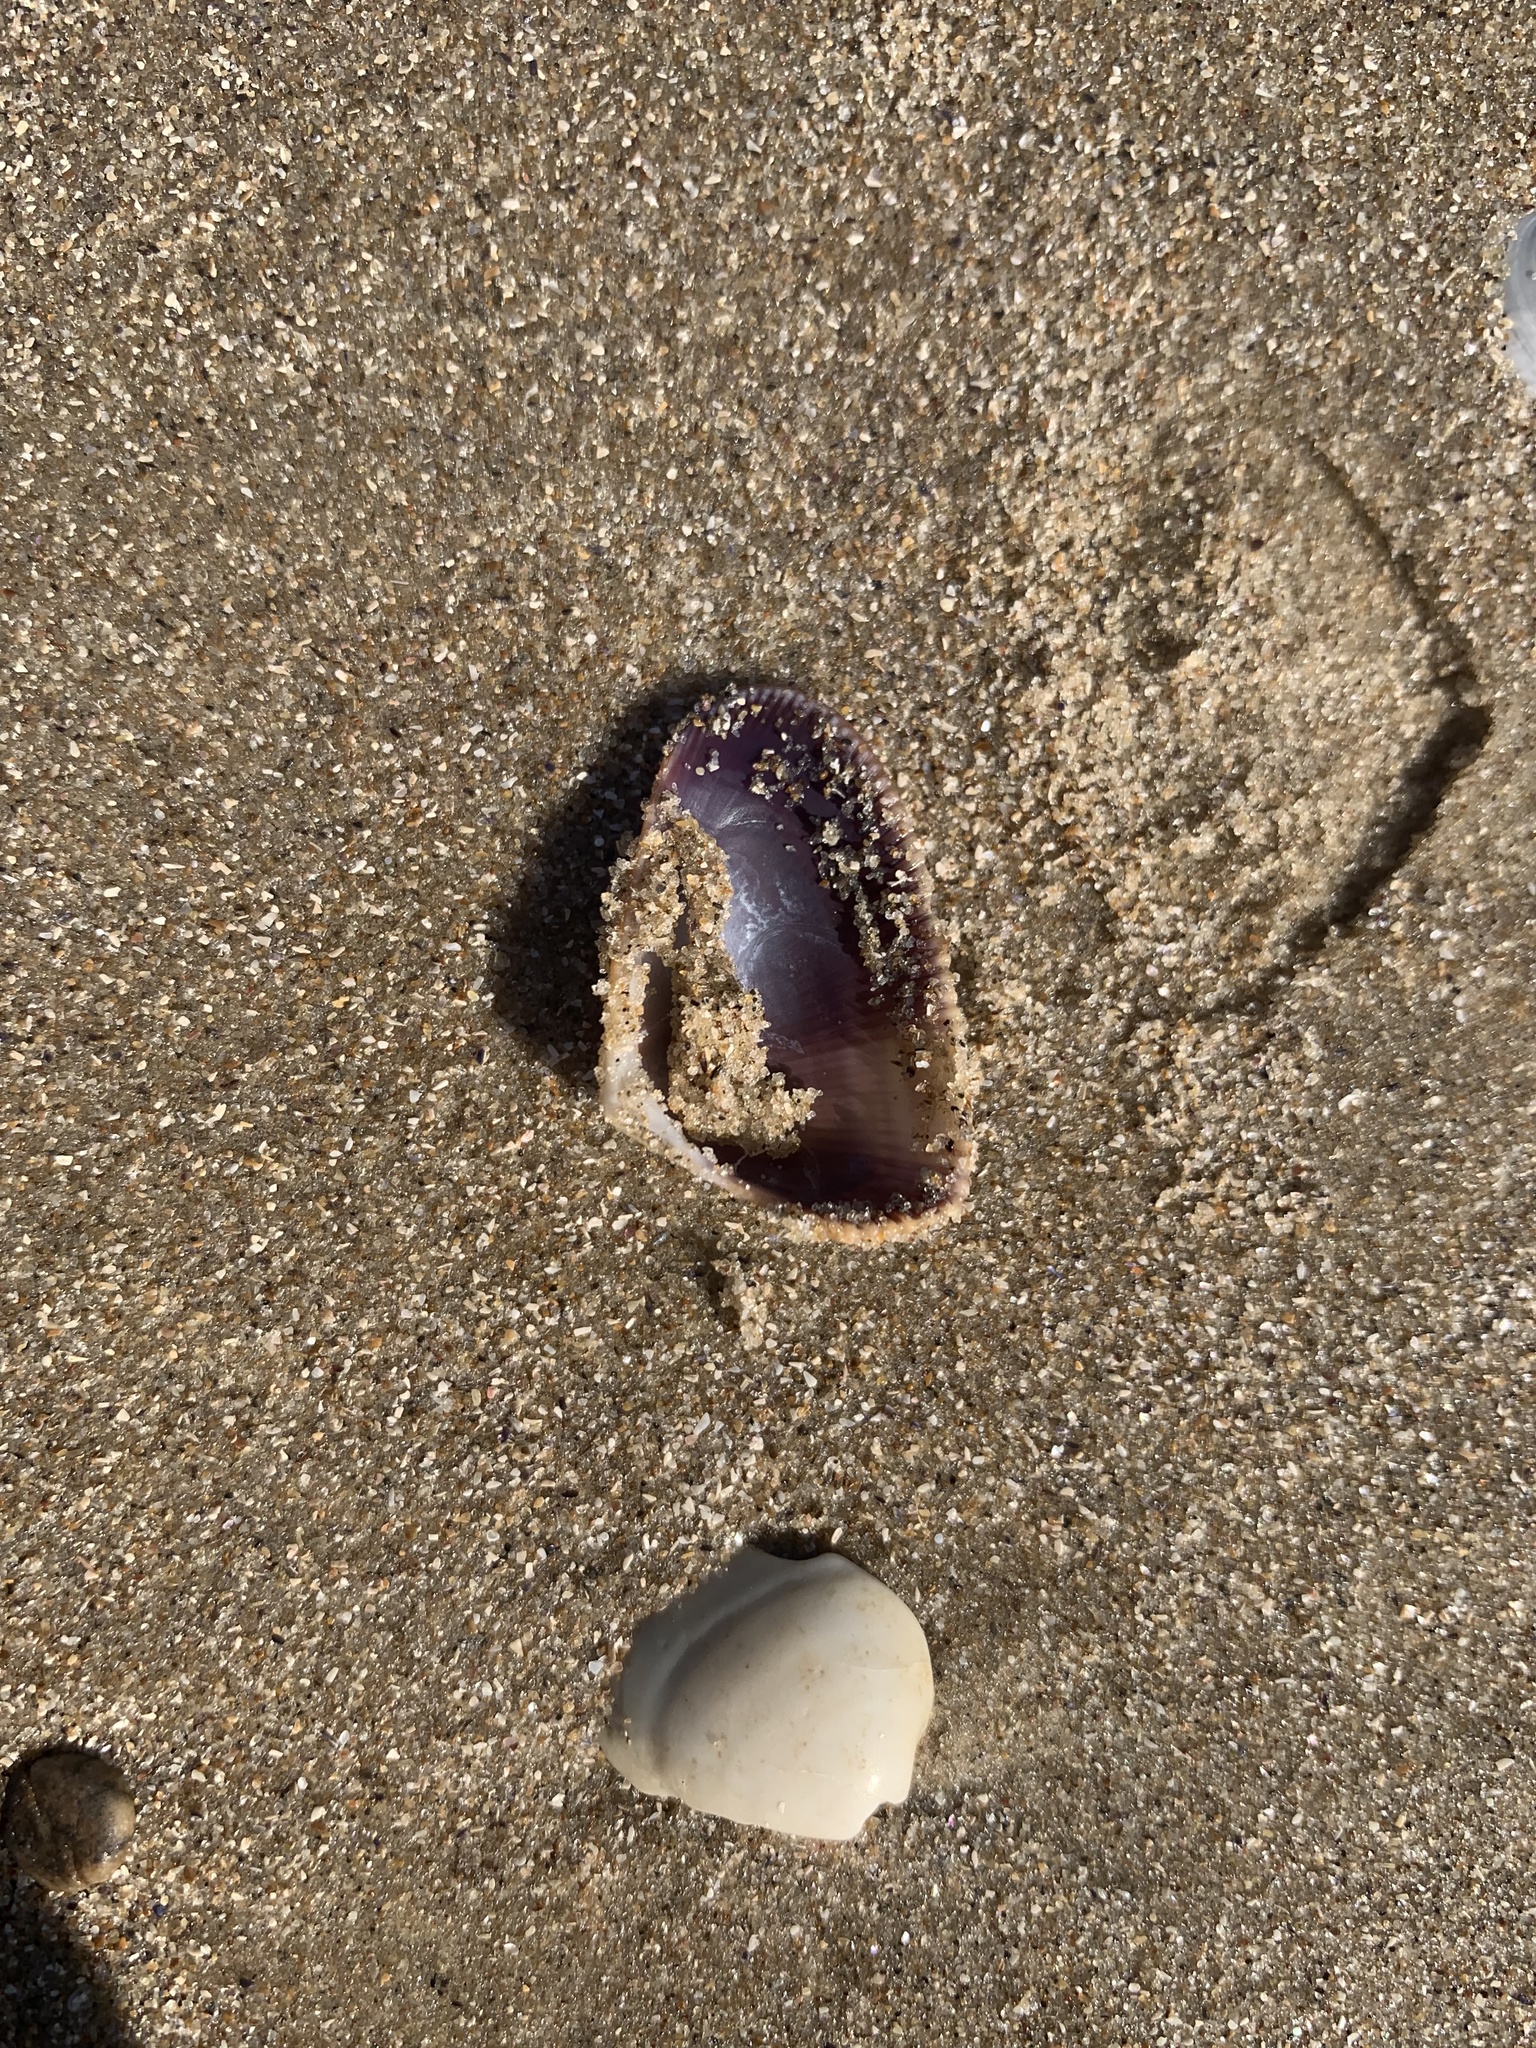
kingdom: Animalia
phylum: Mollusca
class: Bivalvia
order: Cardiida
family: Donacidae
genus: Donax
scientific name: Donax hanleyanus
